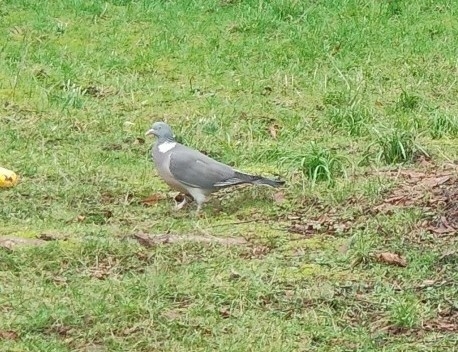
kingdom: Animalia
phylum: Chordata
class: Aves
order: Columbiformes
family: Columbidae
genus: Columba
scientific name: Columba palumbus
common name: Common wood pigeon
